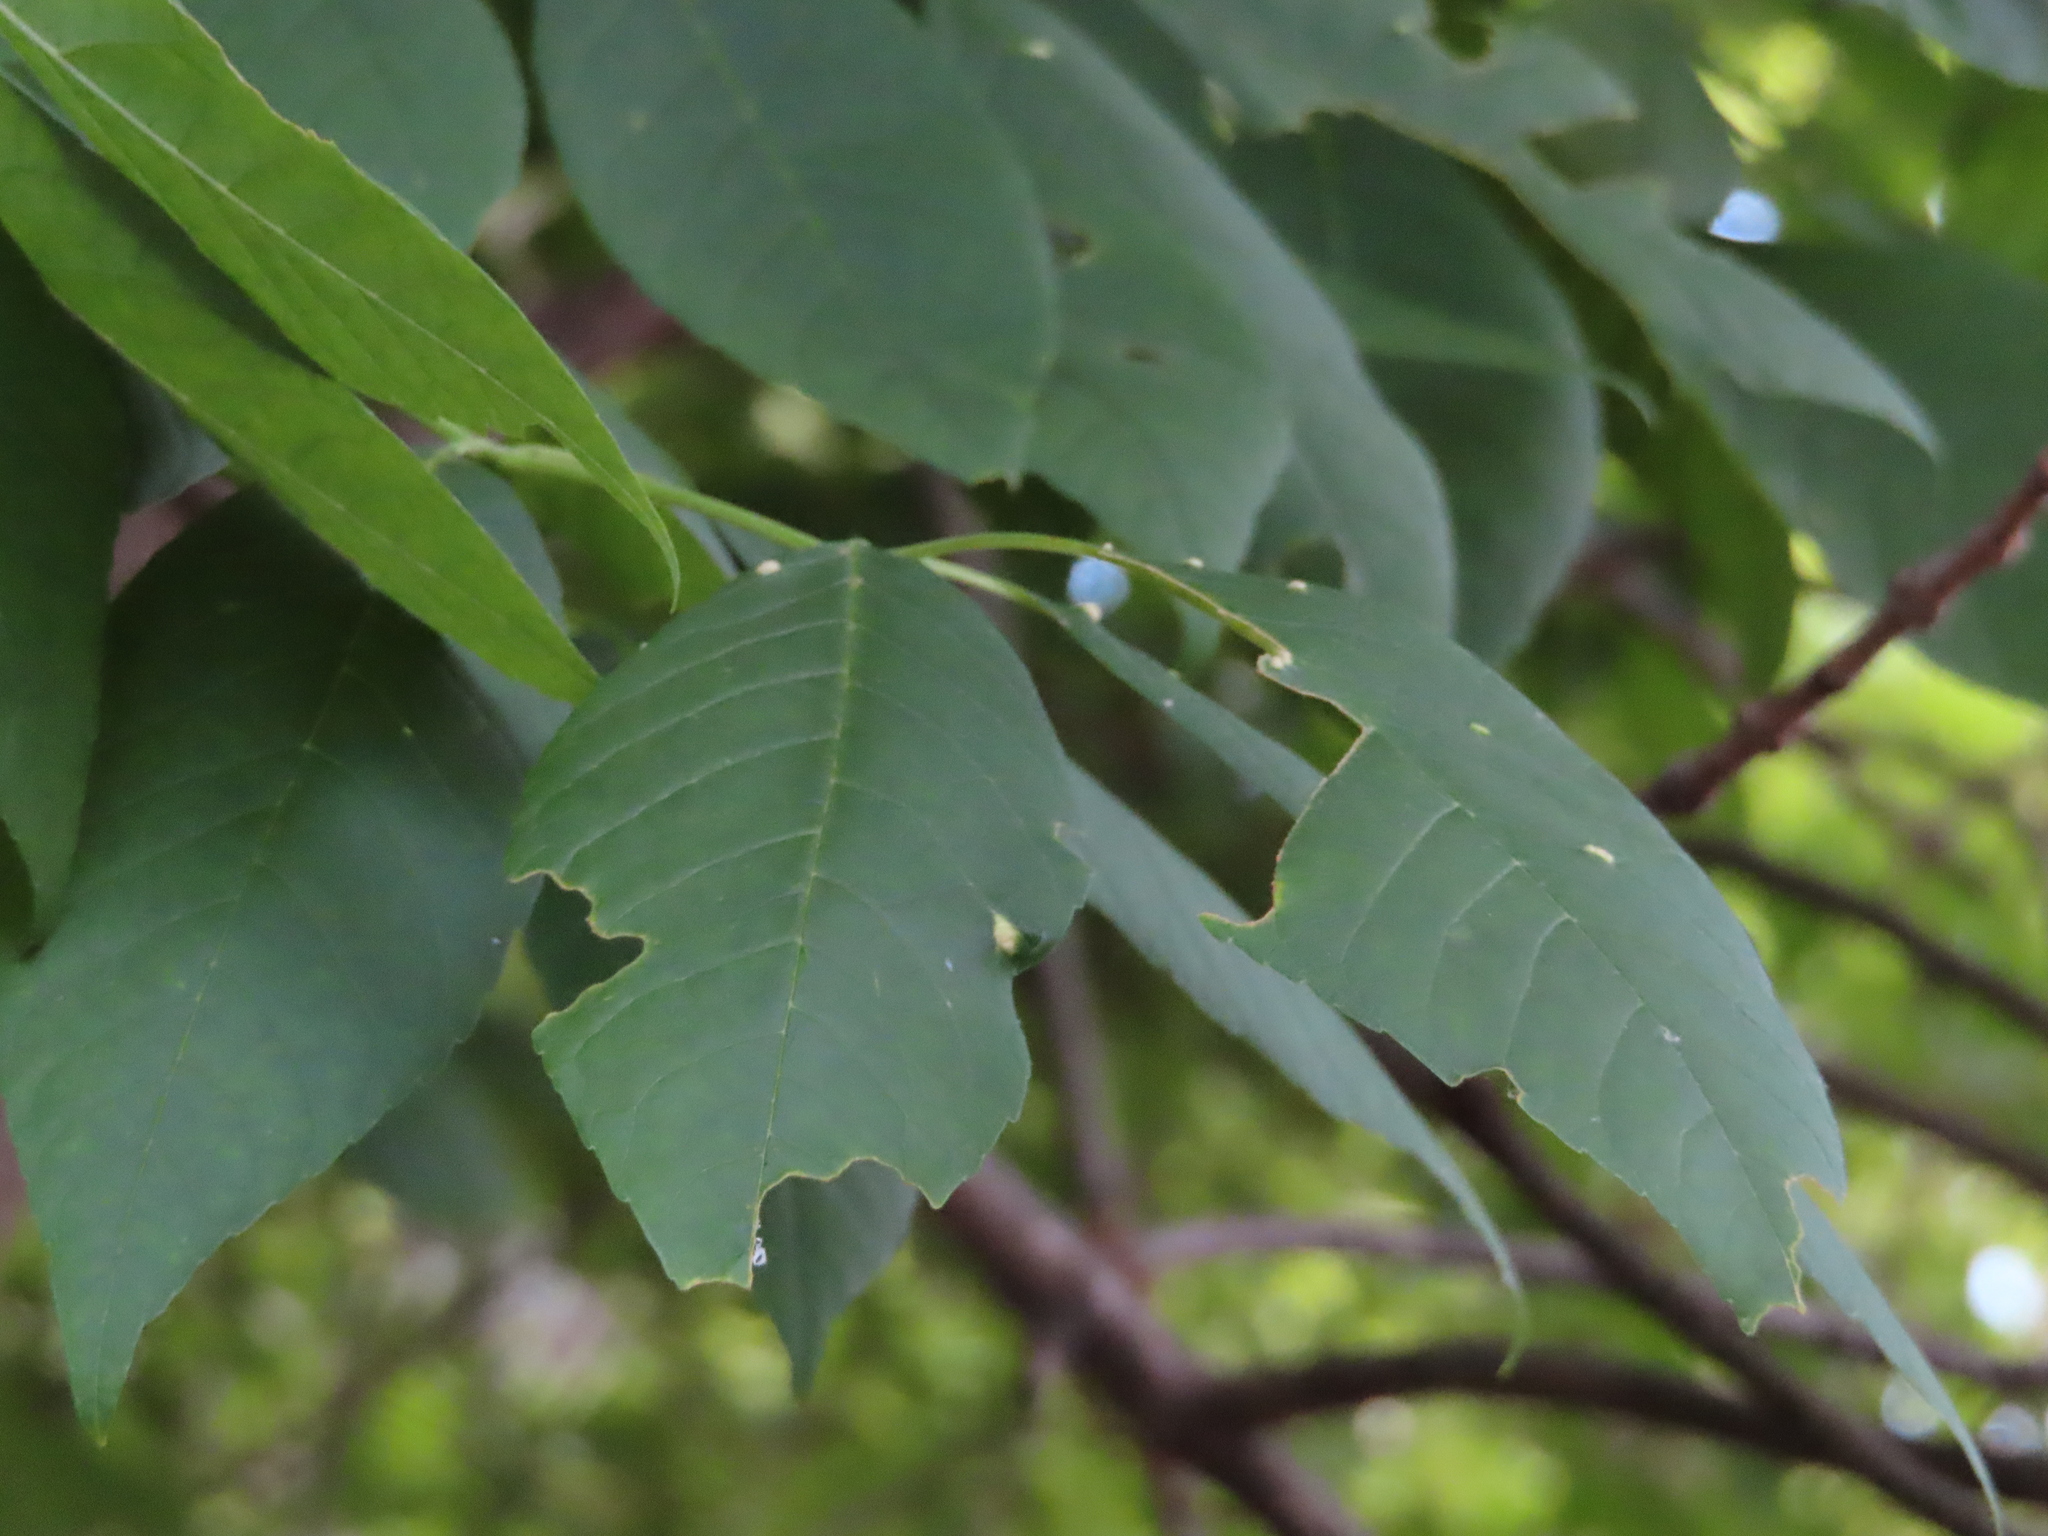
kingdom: Animalia
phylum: Arthropoda
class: Arachnida
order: Trombidiformes
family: Eriophyidae
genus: Aceria
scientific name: Aceria fraxinicola
